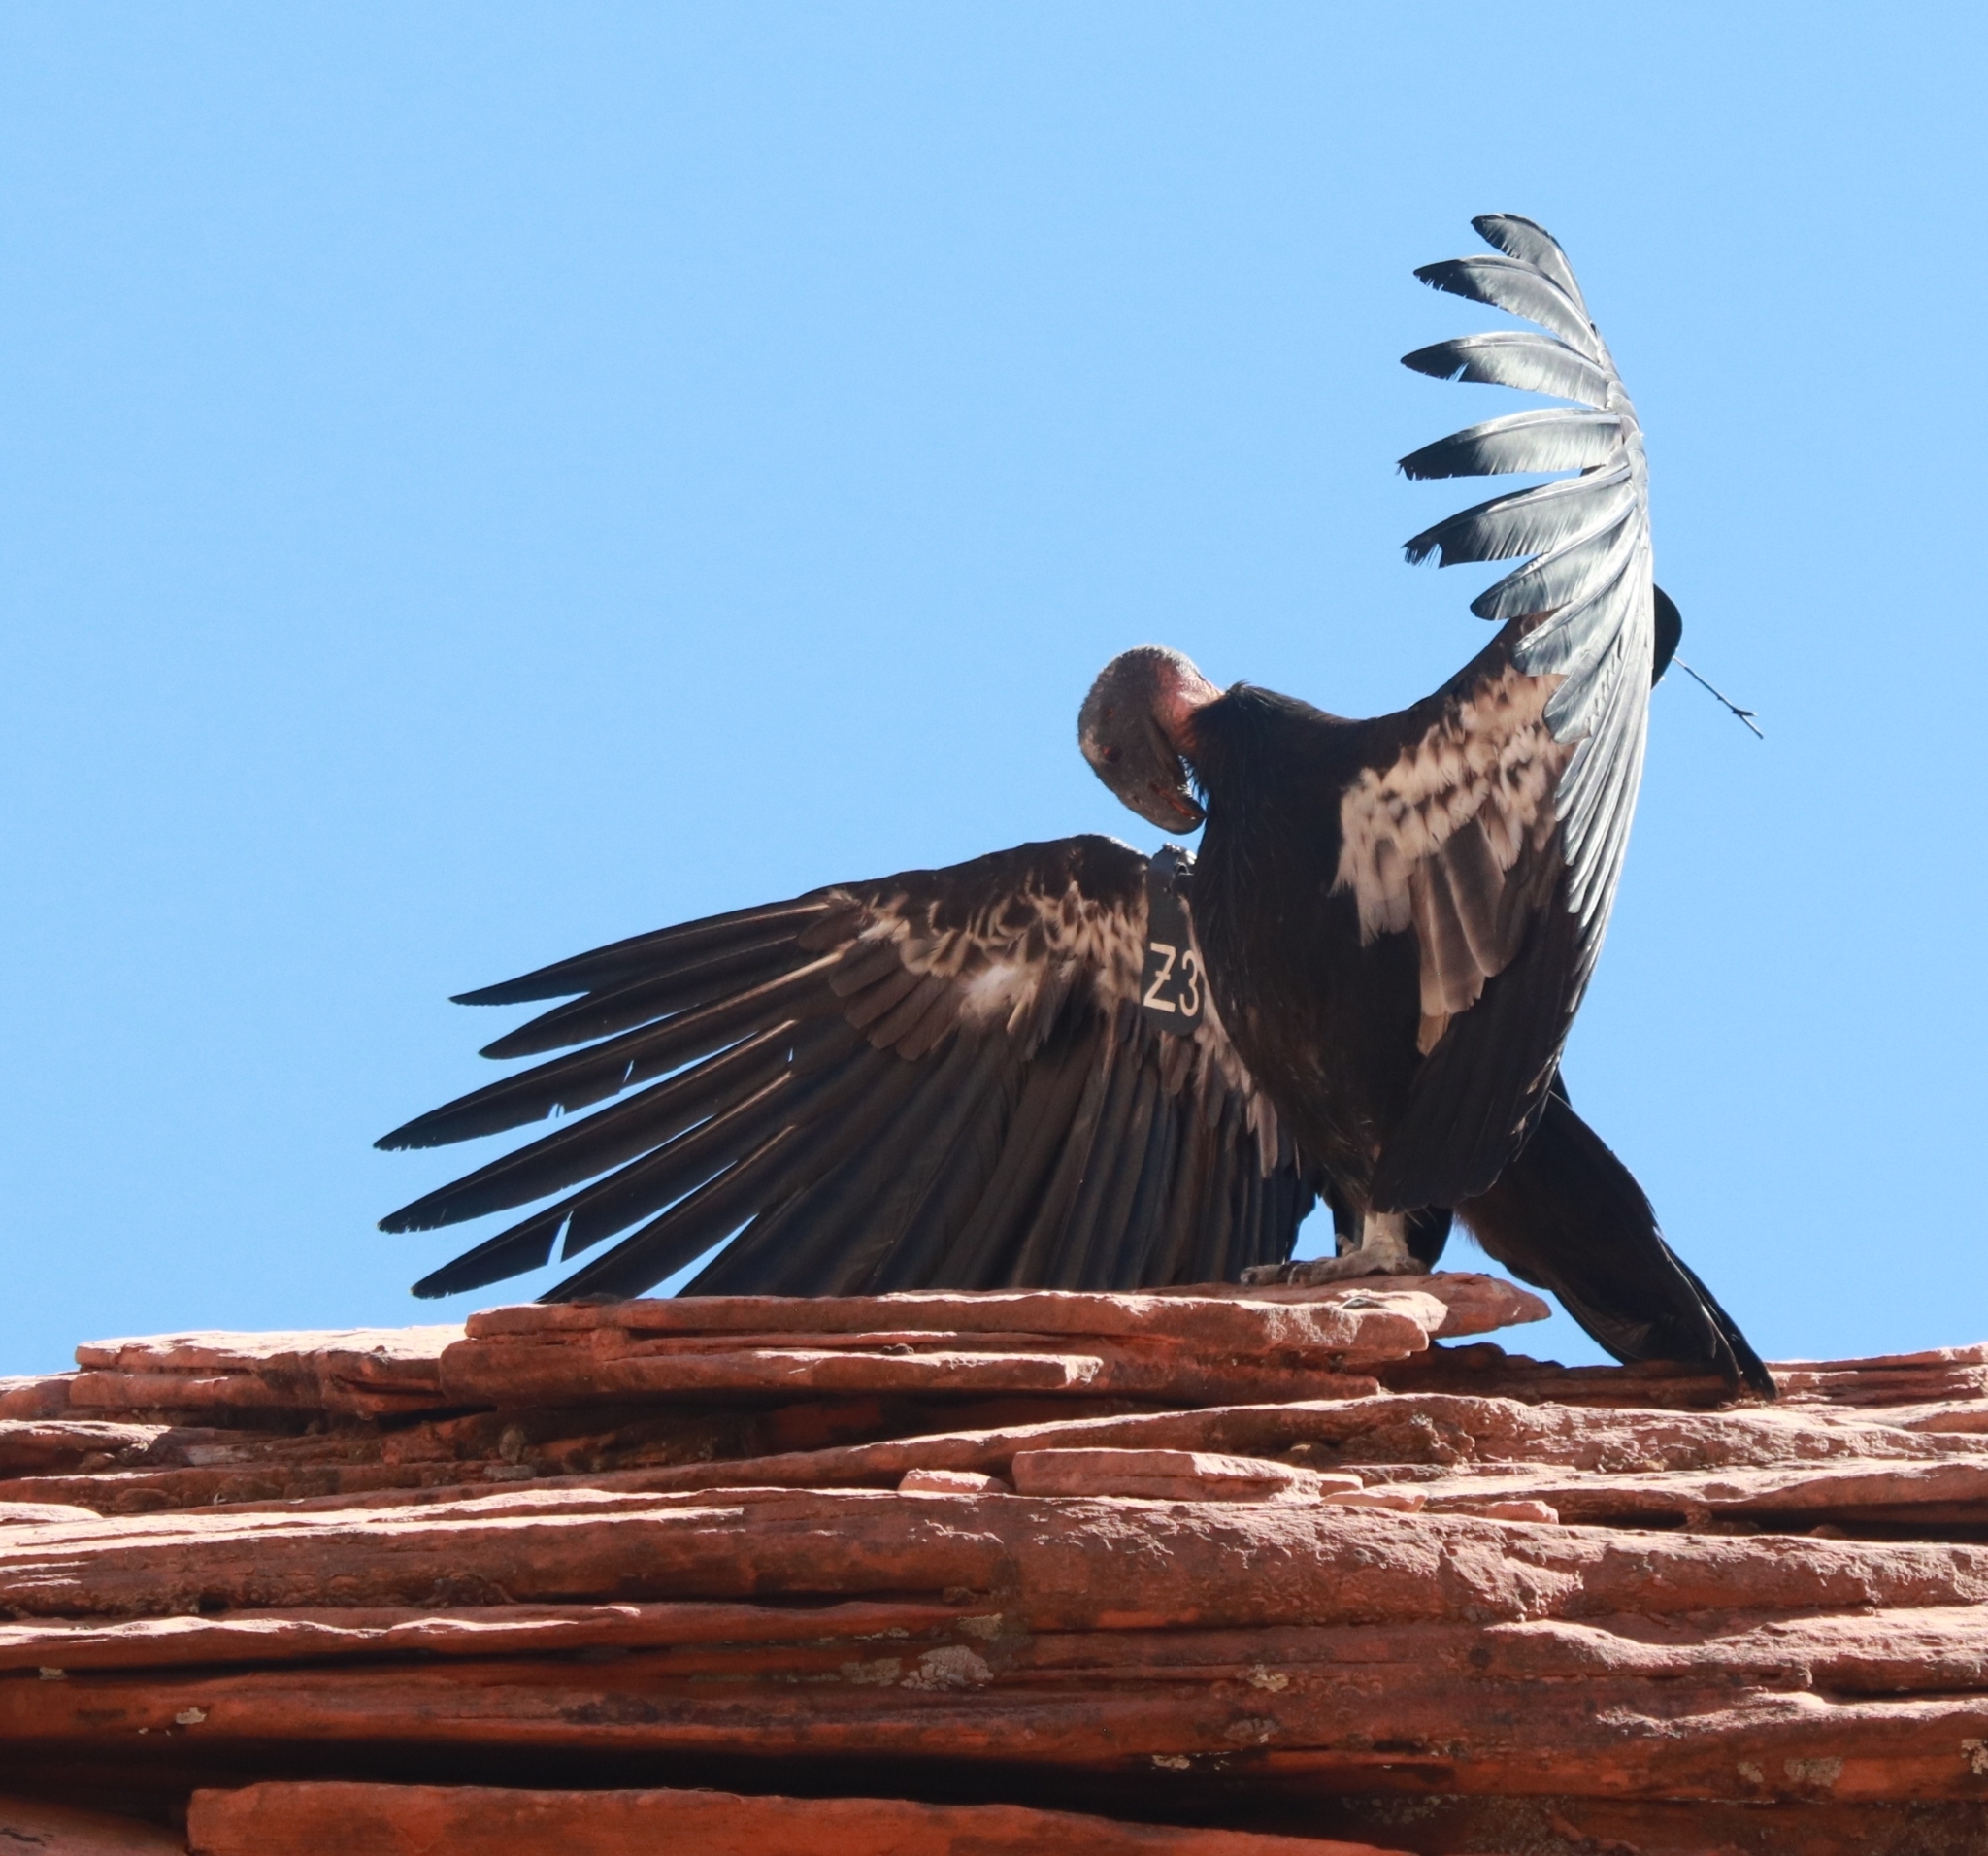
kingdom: Animalia
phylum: Chordata
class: Aves
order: Accipitriformes
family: Cathartidae
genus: Gymnogyps
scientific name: Gymnogyps californianus
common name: California condor
